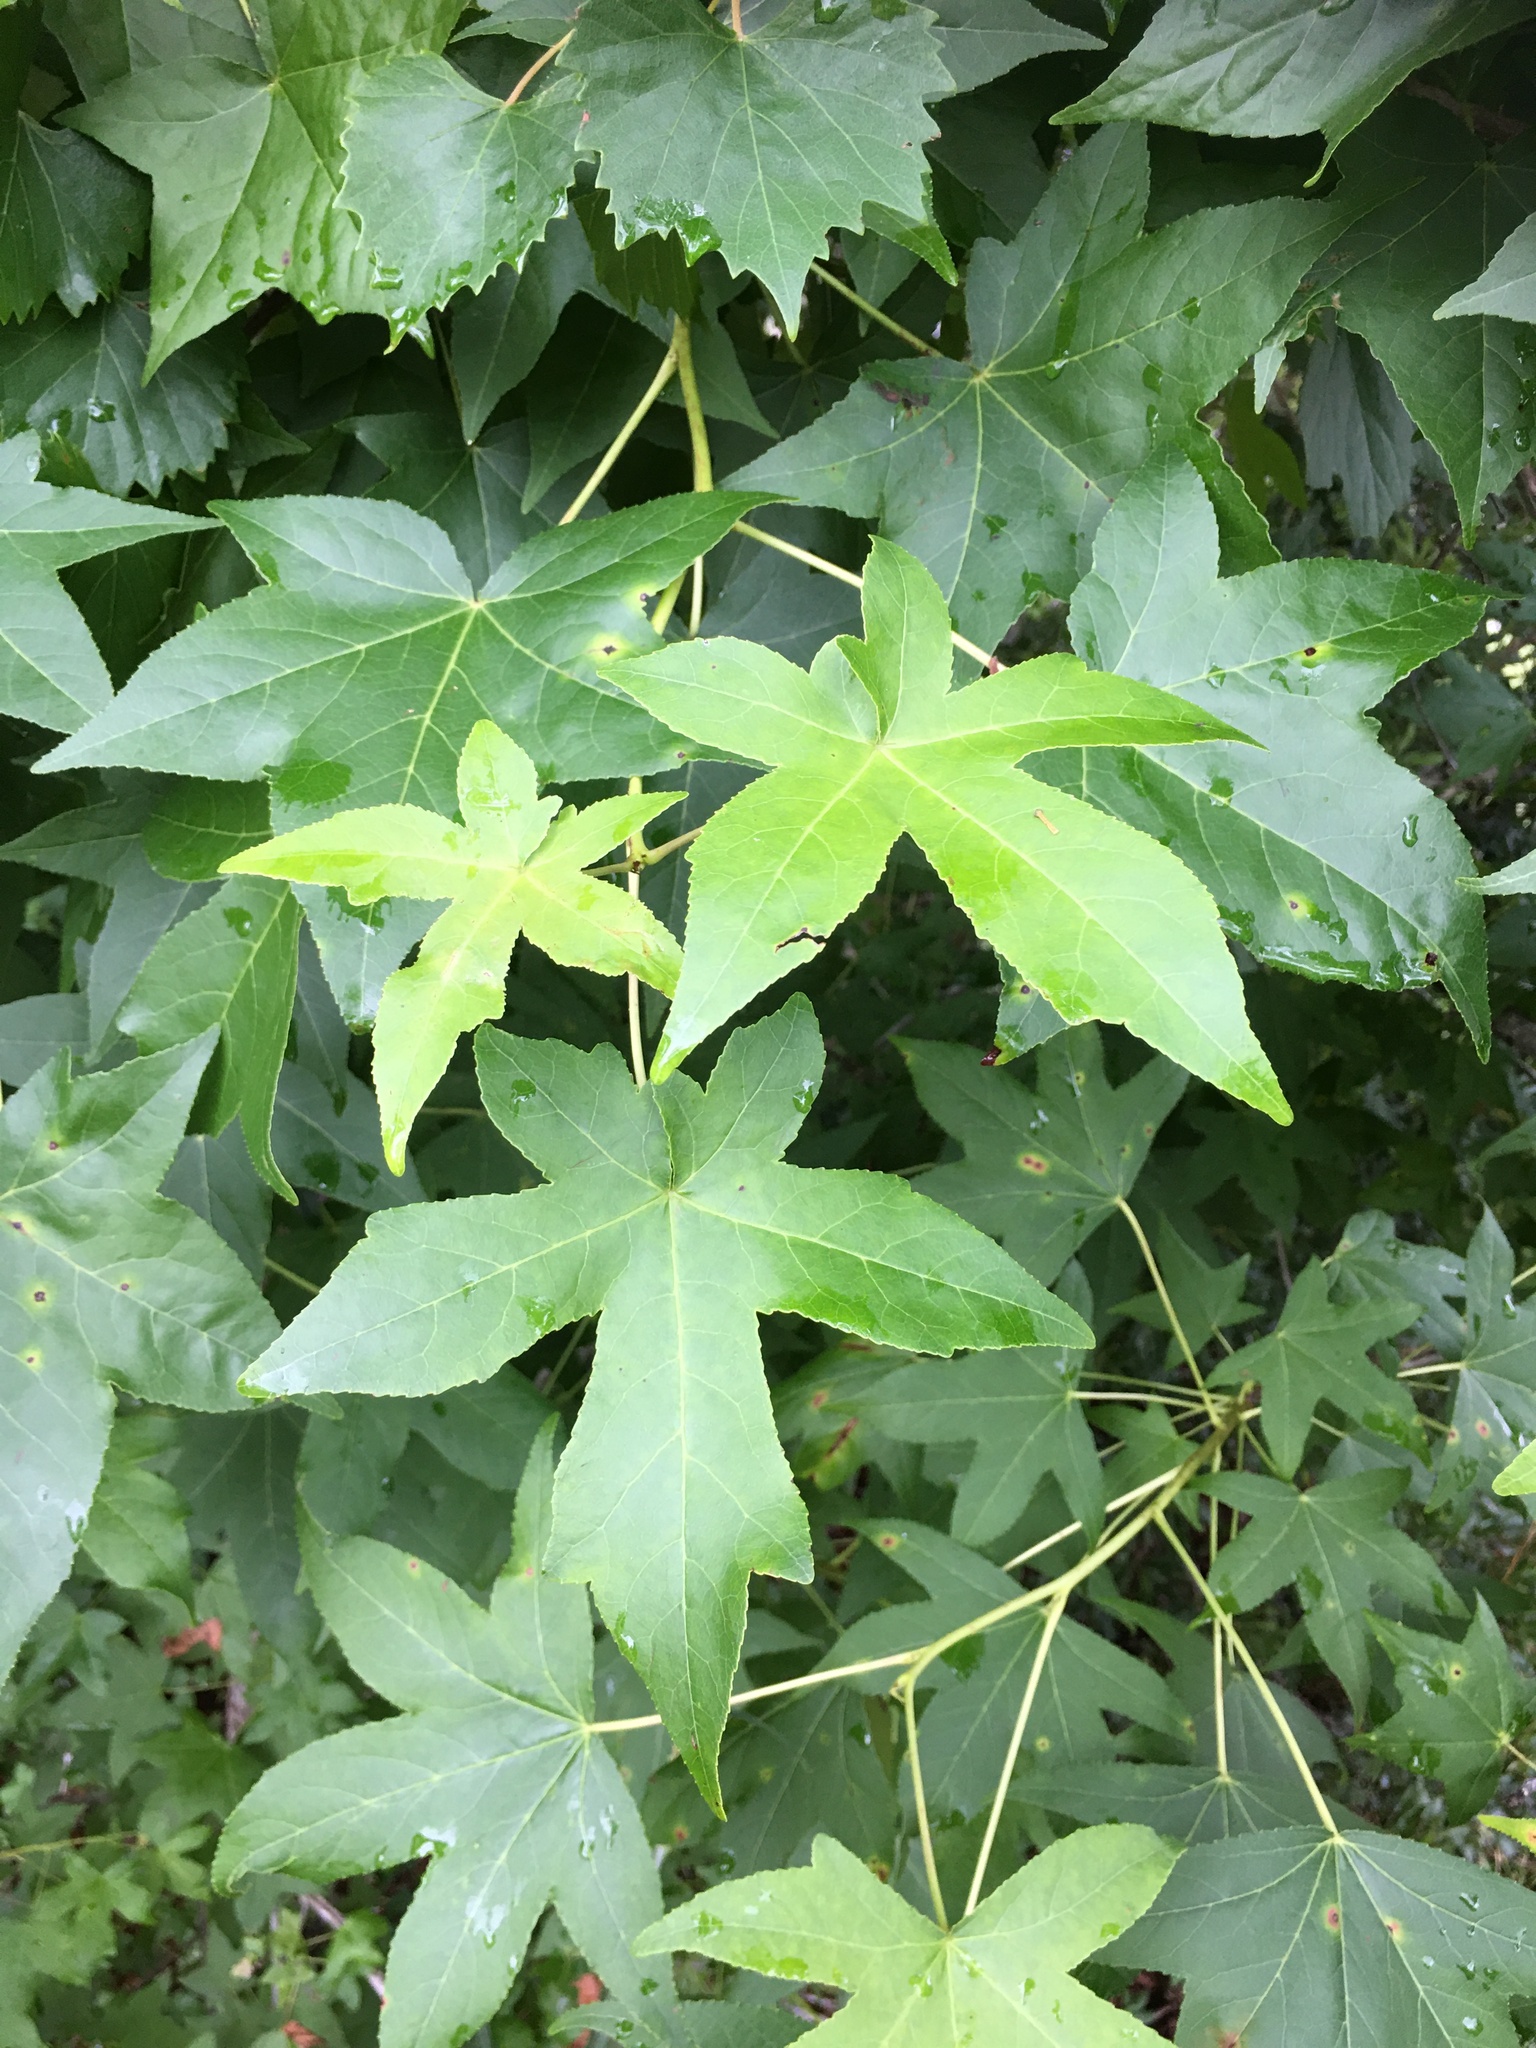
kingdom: Plantae
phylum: Tracheophyta
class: Magnoliopsida
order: Saxifragales
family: Altingiaceae
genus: Liquidambar
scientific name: Liquidambar styraciflua
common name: Sweet gum
